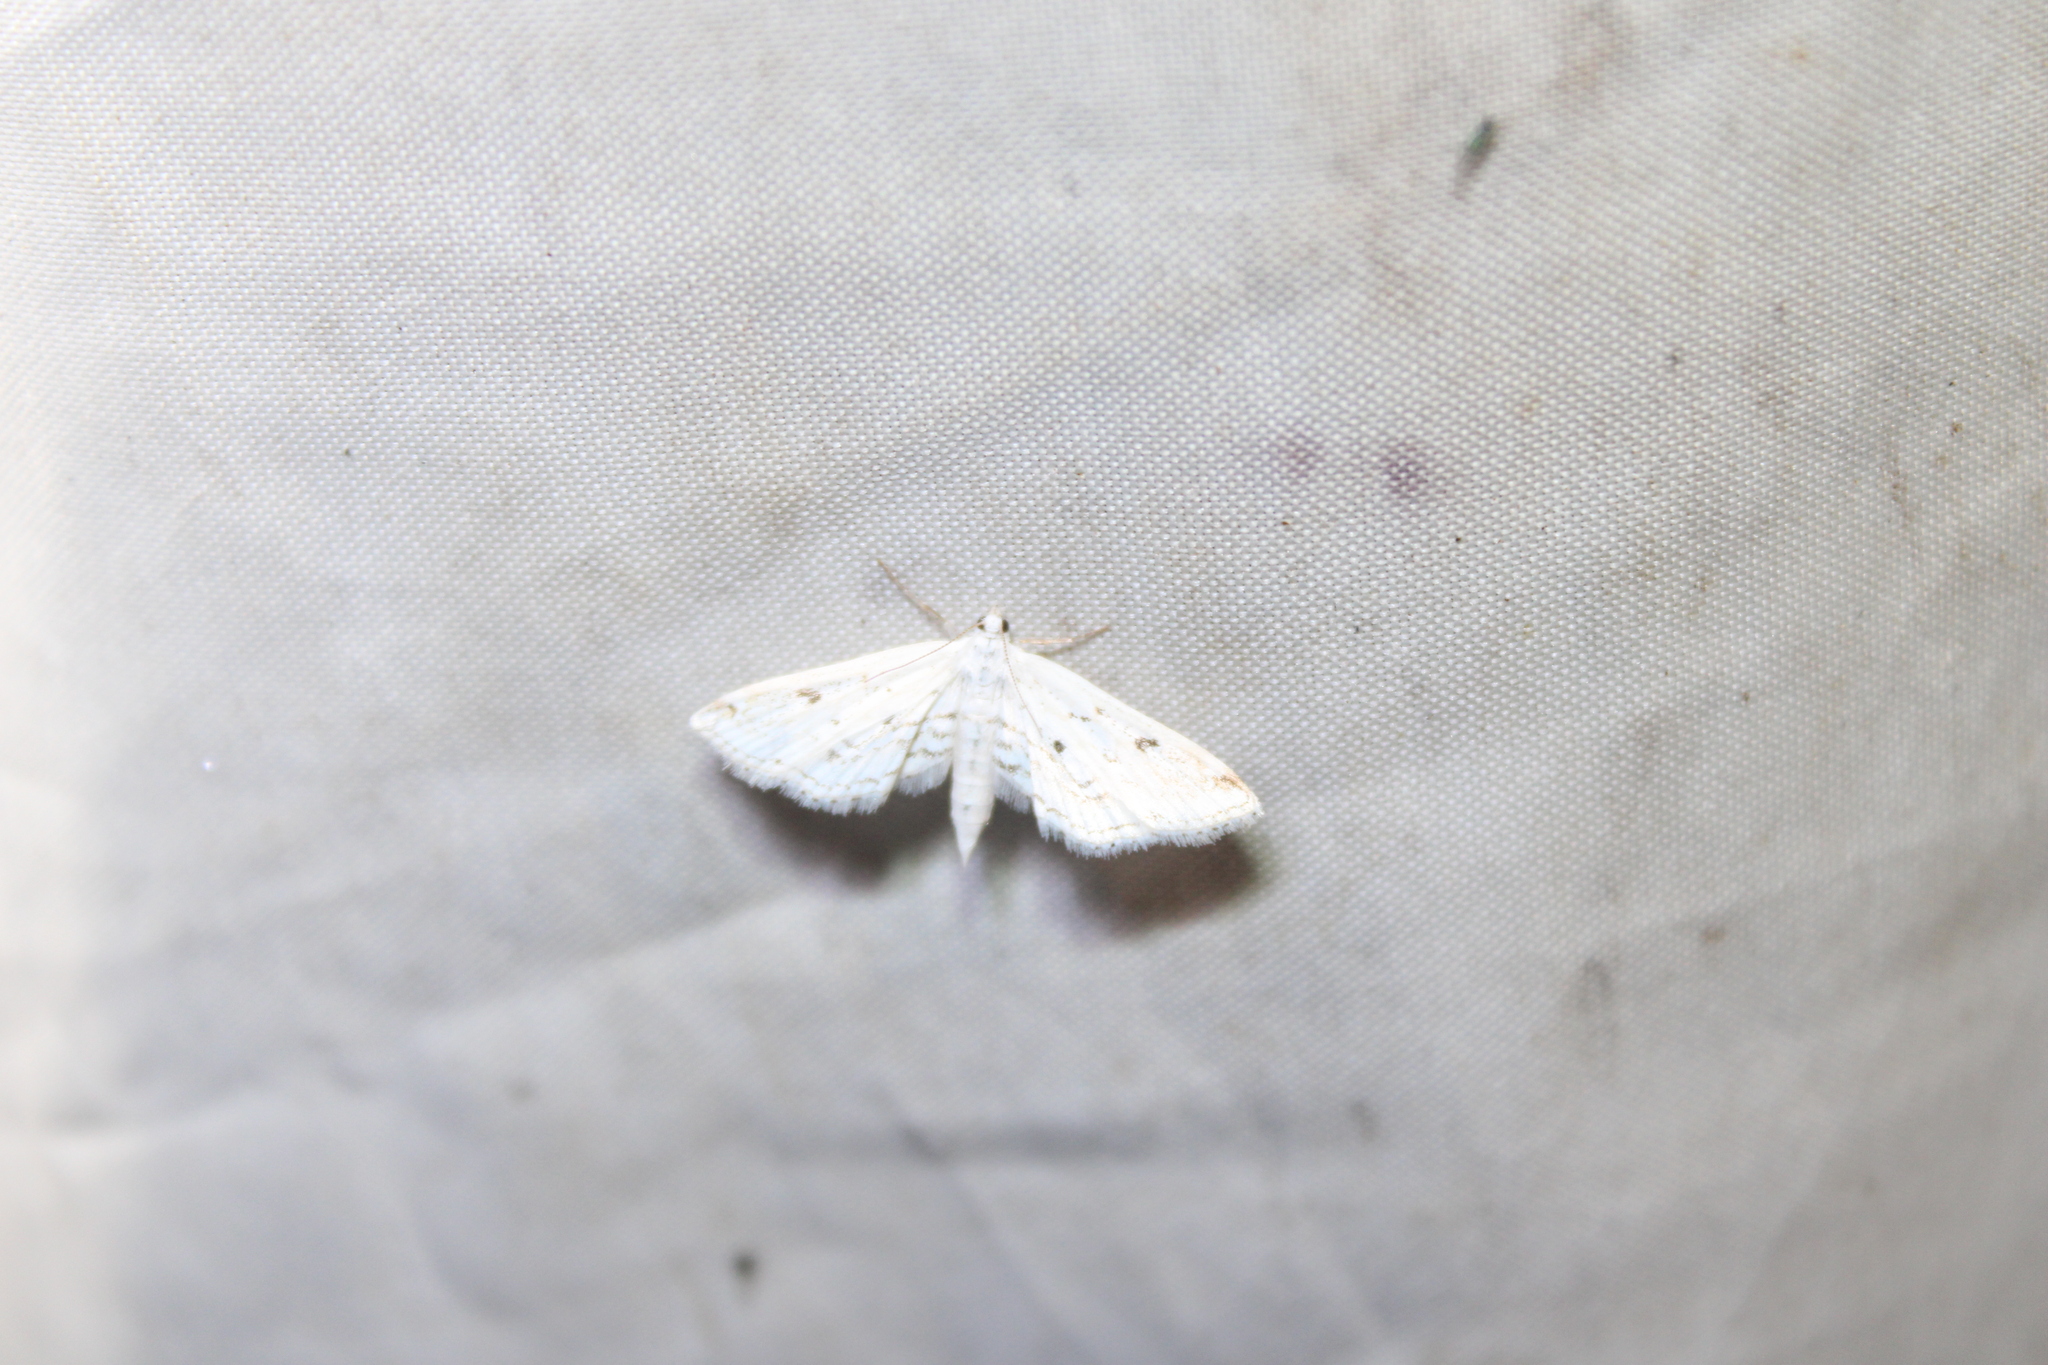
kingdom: Animalia
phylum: Arthropoda
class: Insecta
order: Lepidoptera
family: Crambidae
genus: Parapoynx
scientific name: Parapoynx allionealis
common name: Bladderwort casemaker
